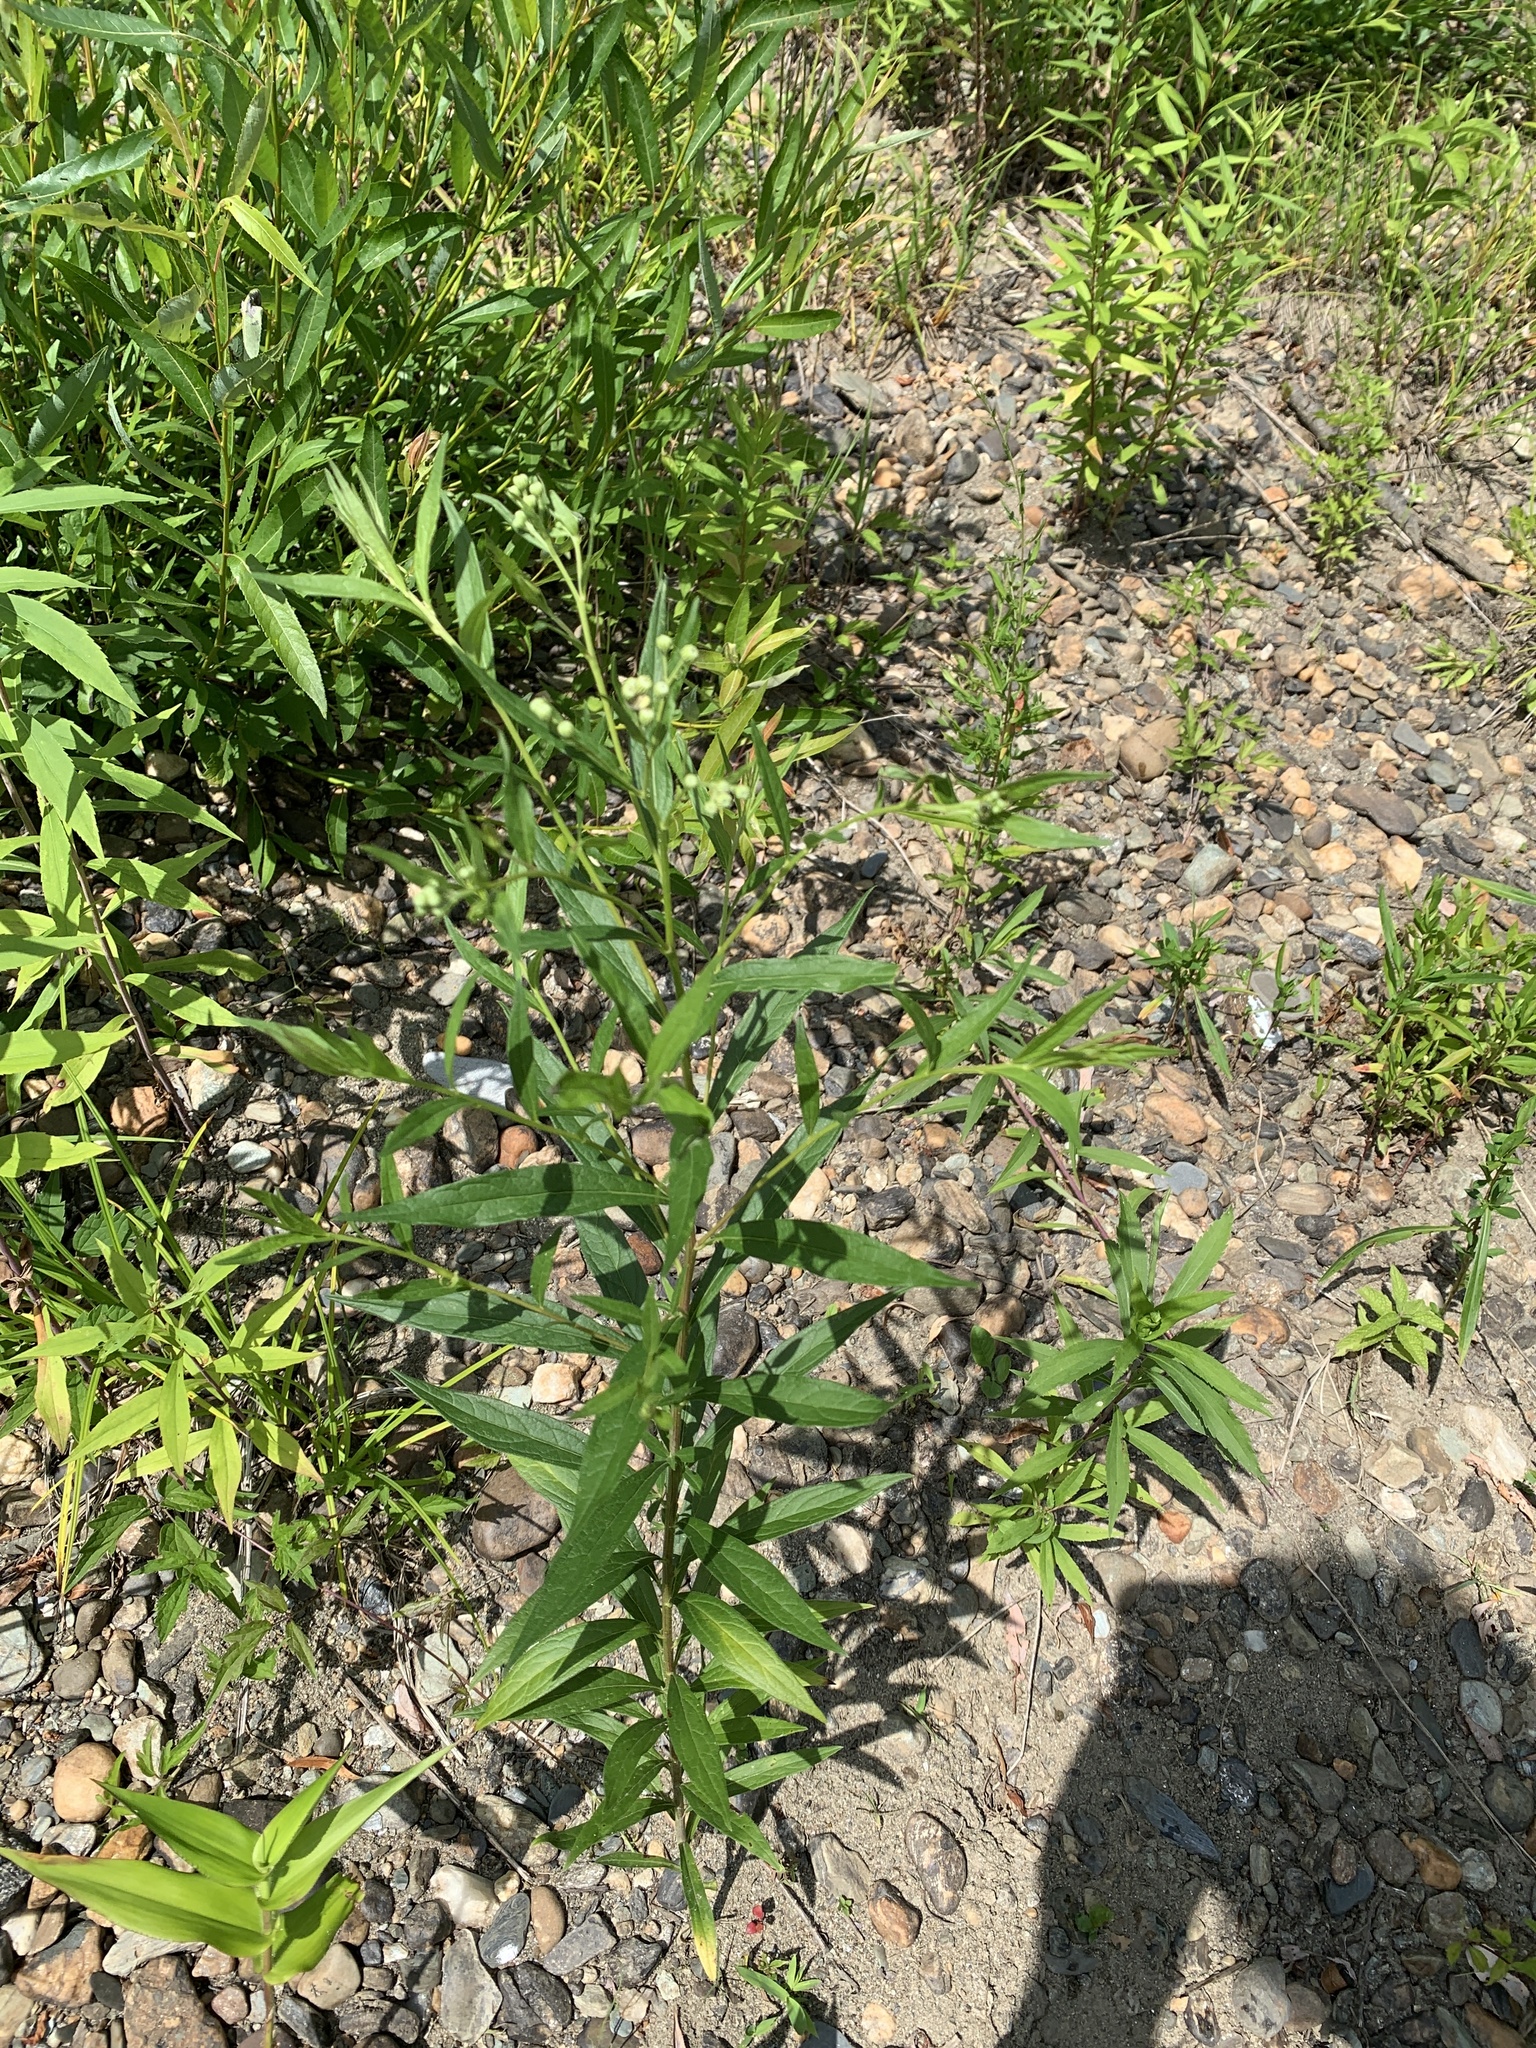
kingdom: Plantae
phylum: Tracheophyta
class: Magnoliopsida
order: Asterales
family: Asteraceae
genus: Doellingeria
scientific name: Doellingeria umbellata
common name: Flat-top white aster
